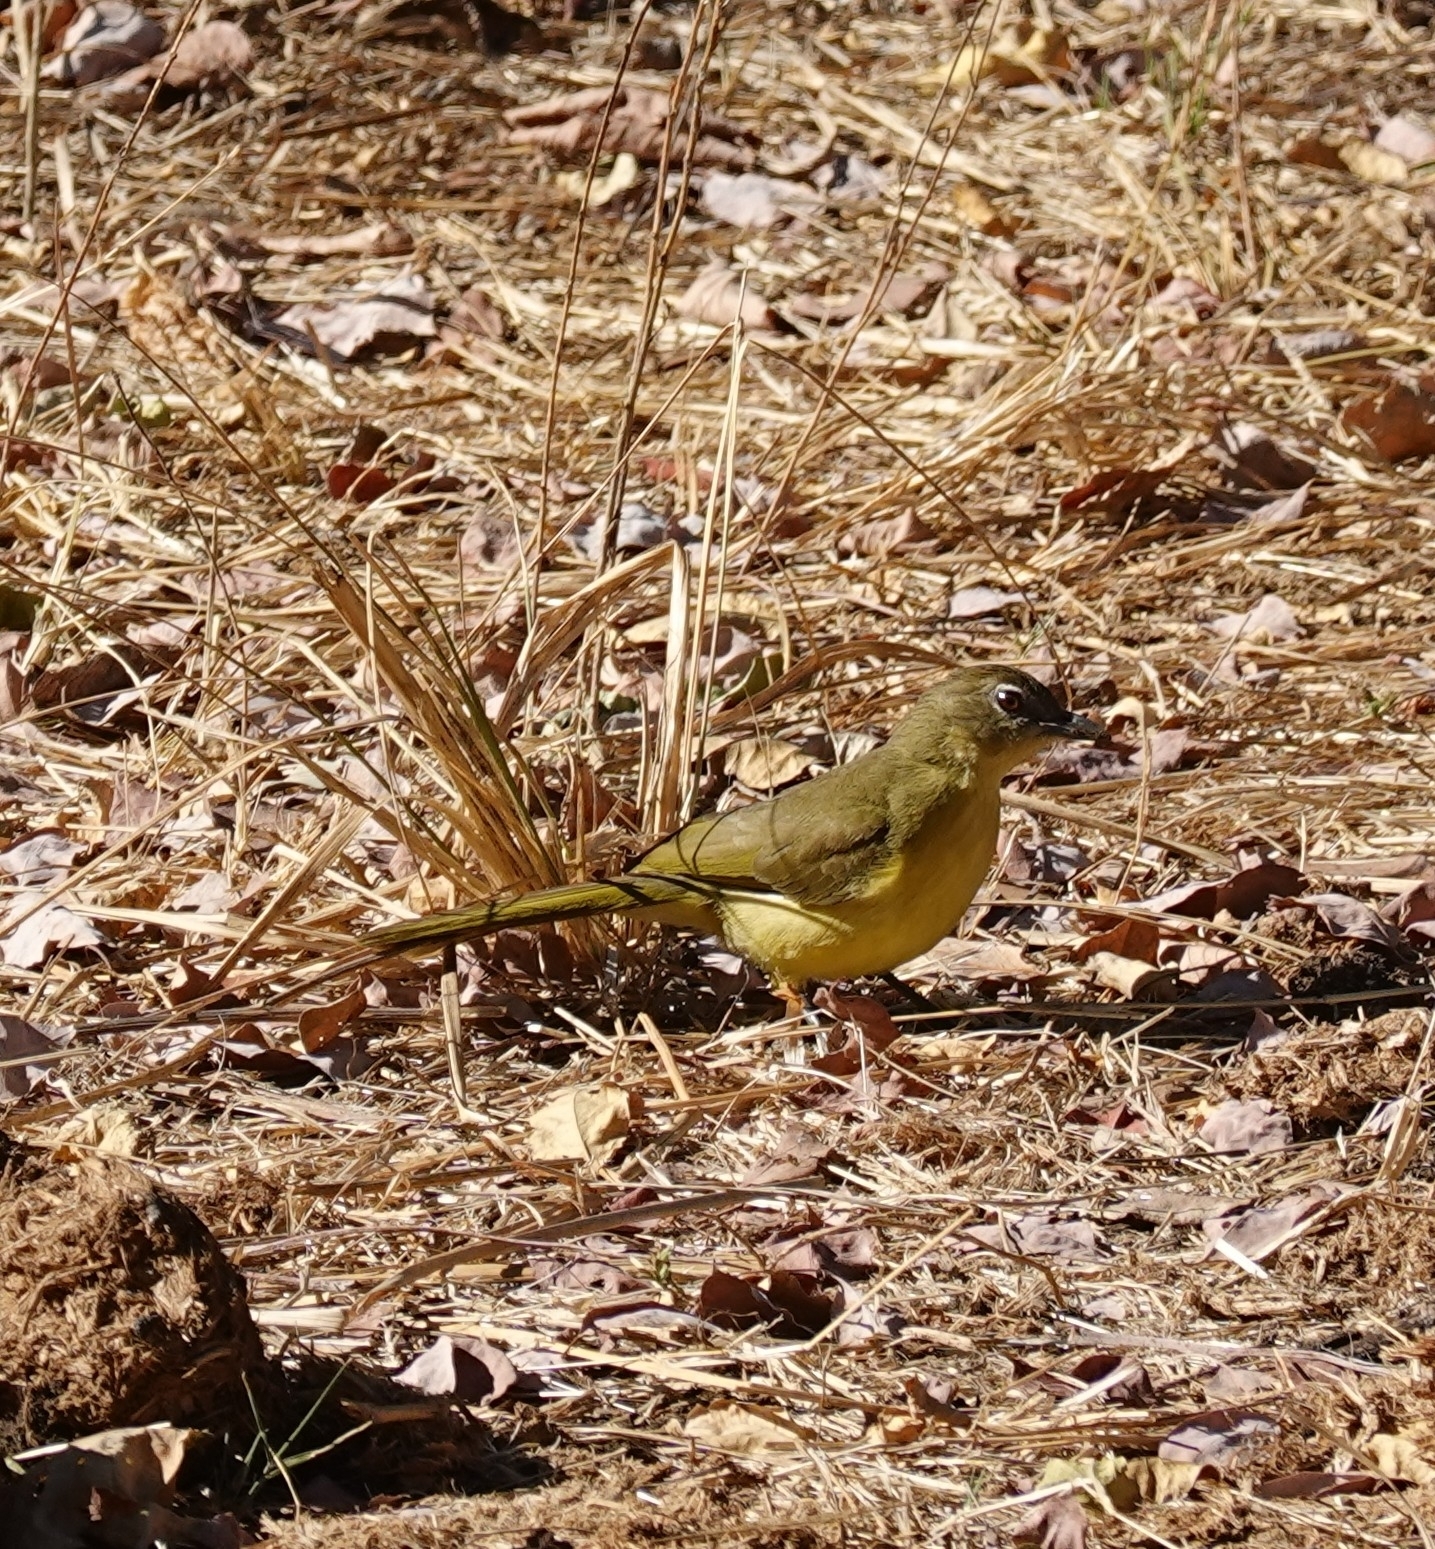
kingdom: Animalia
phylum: Chordata
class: Aves
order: Passeriformes
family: Pycnonotidae
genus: Chlorocichla
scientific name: Chlorocichla flaviventris
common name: Yellow-bellied greenbul
